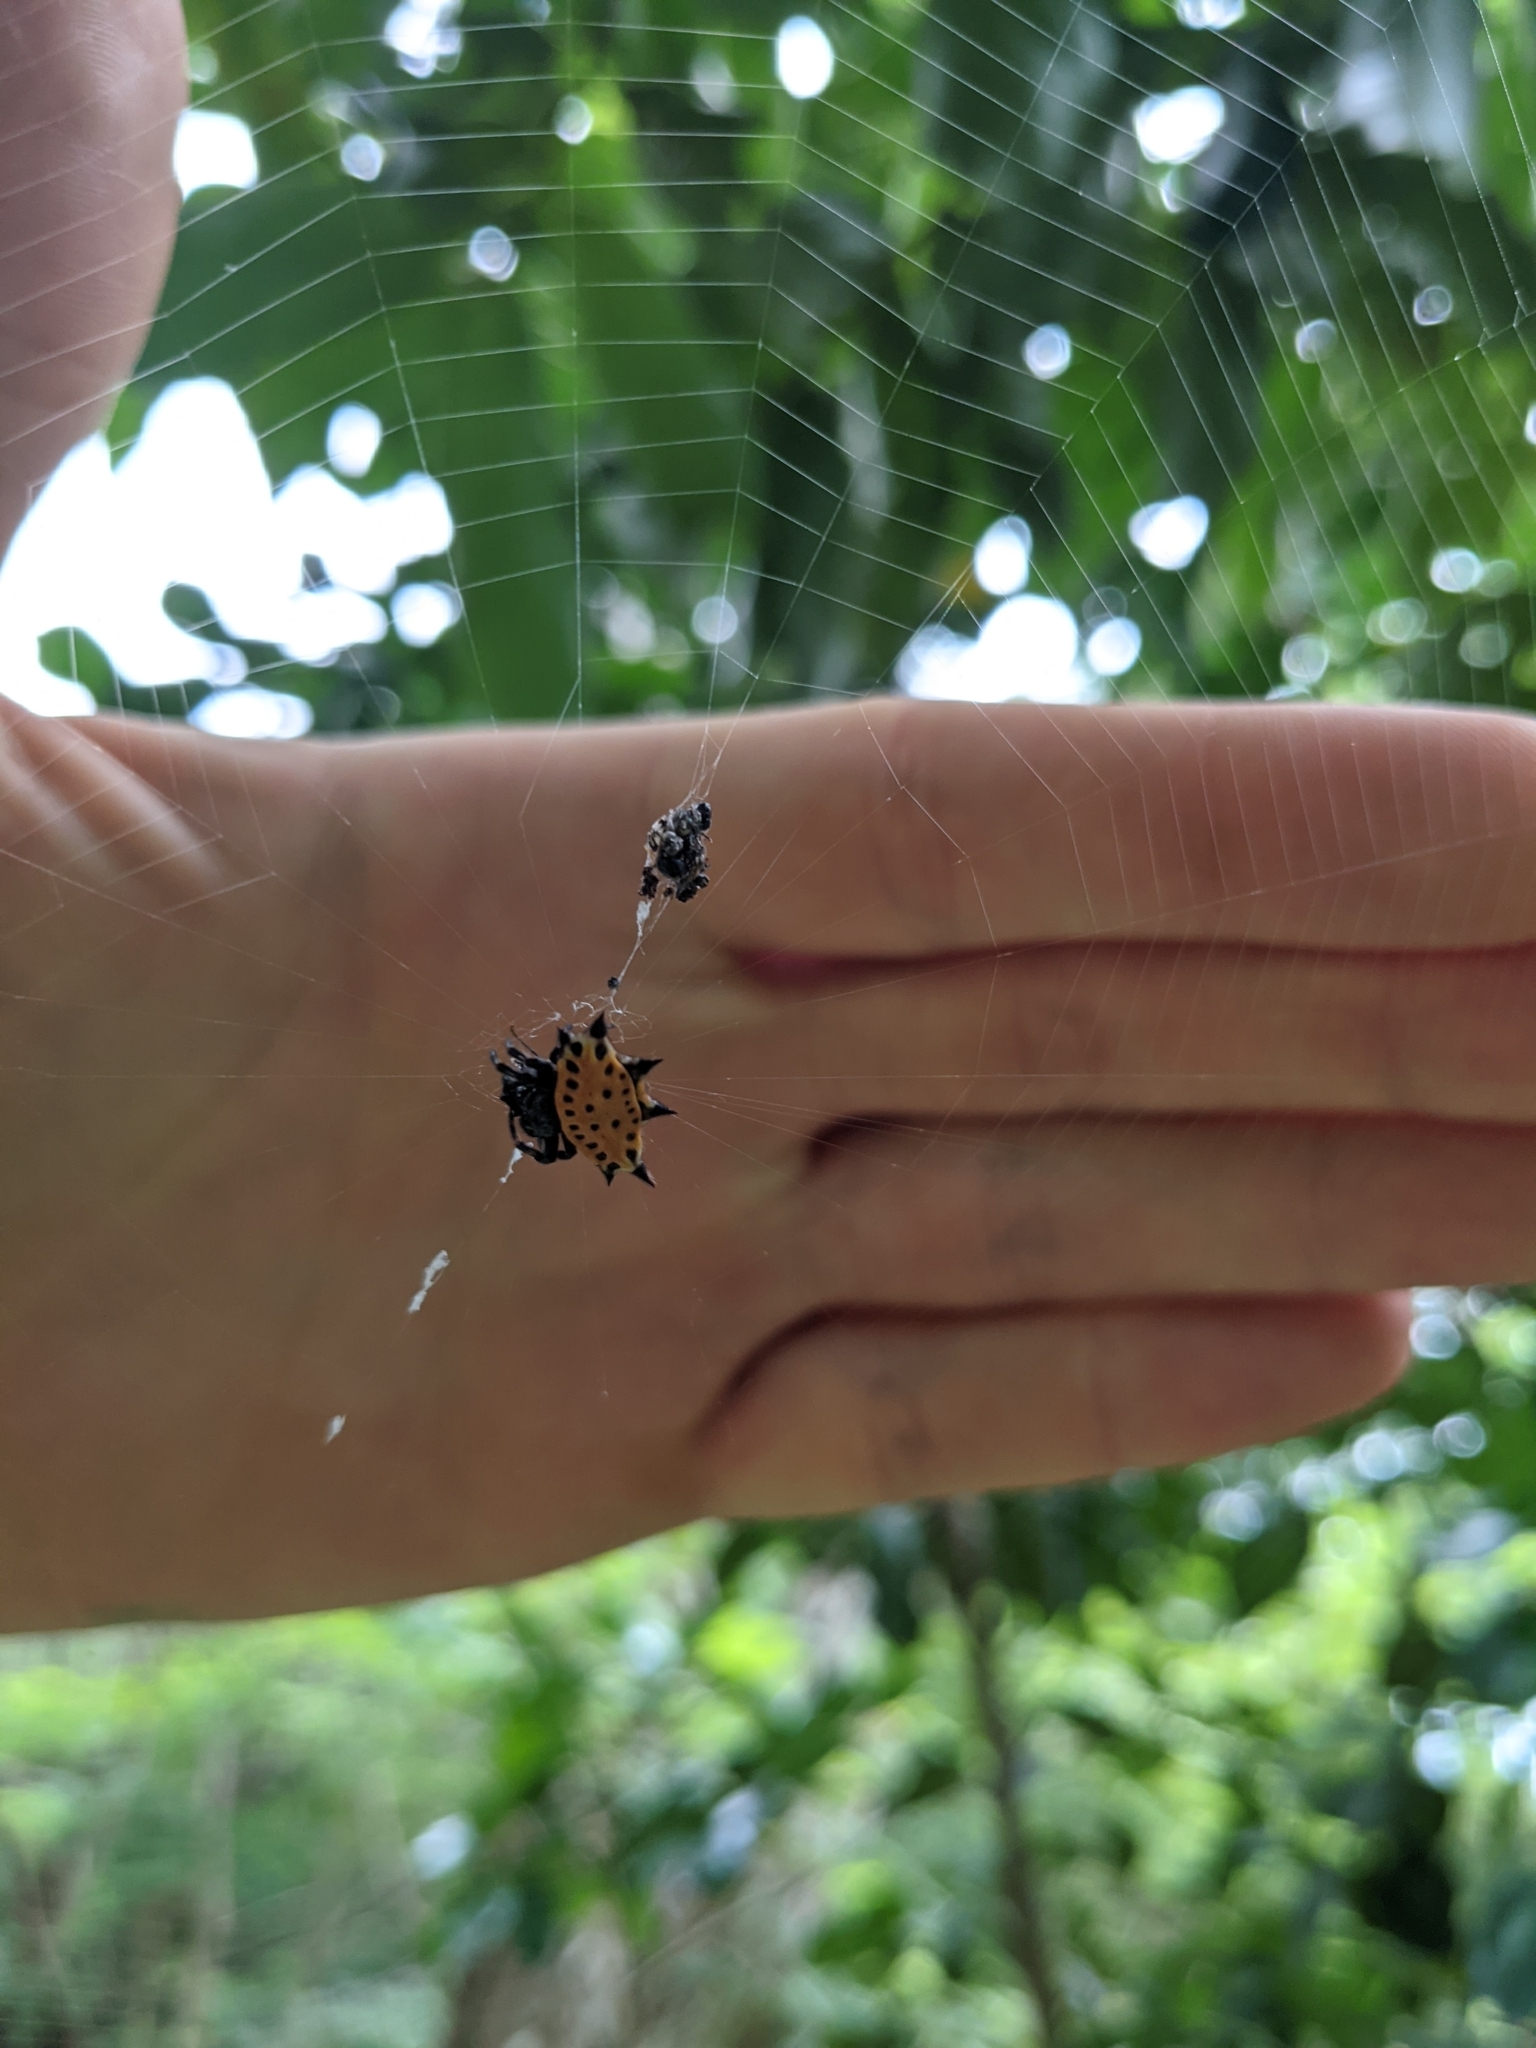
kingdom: Animalia
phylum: Arthropoda
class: Arachnida
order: Araneae
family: Araneidae
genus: Gasteracantha
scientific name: Gasteracantha cancriformis
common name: Orb weavers
